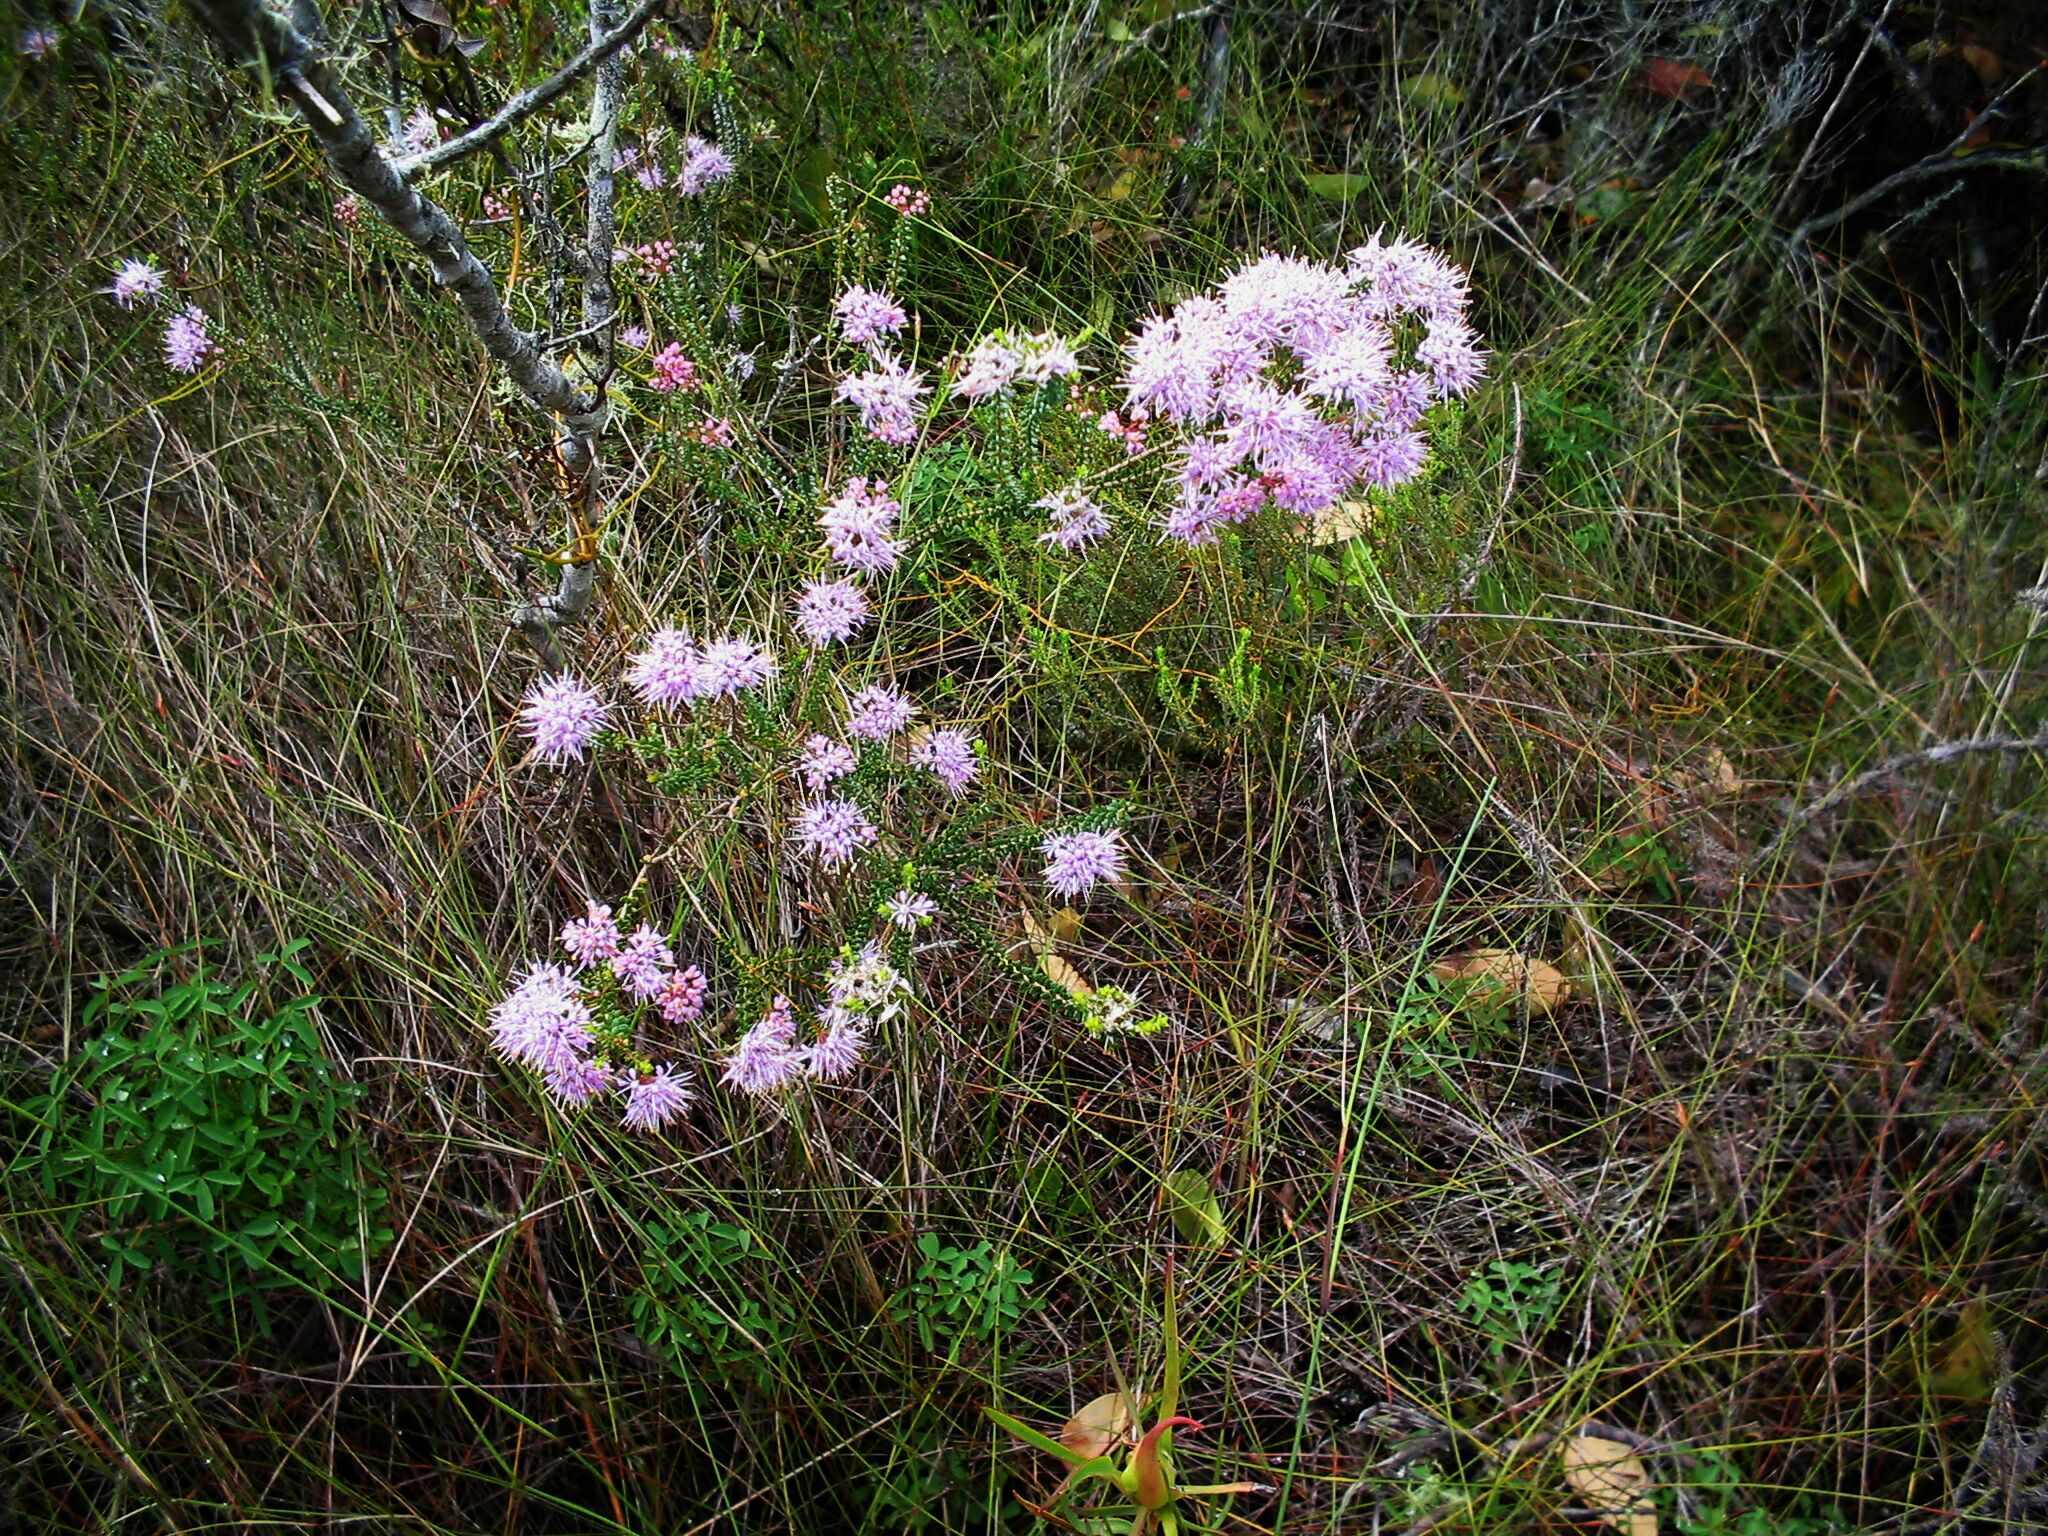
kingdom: Plantae
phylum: Tracheophyta
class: Magnoliopsida
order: Sapindales
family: Rutaceae
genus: Agathosma
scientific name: Agathosma capensis
